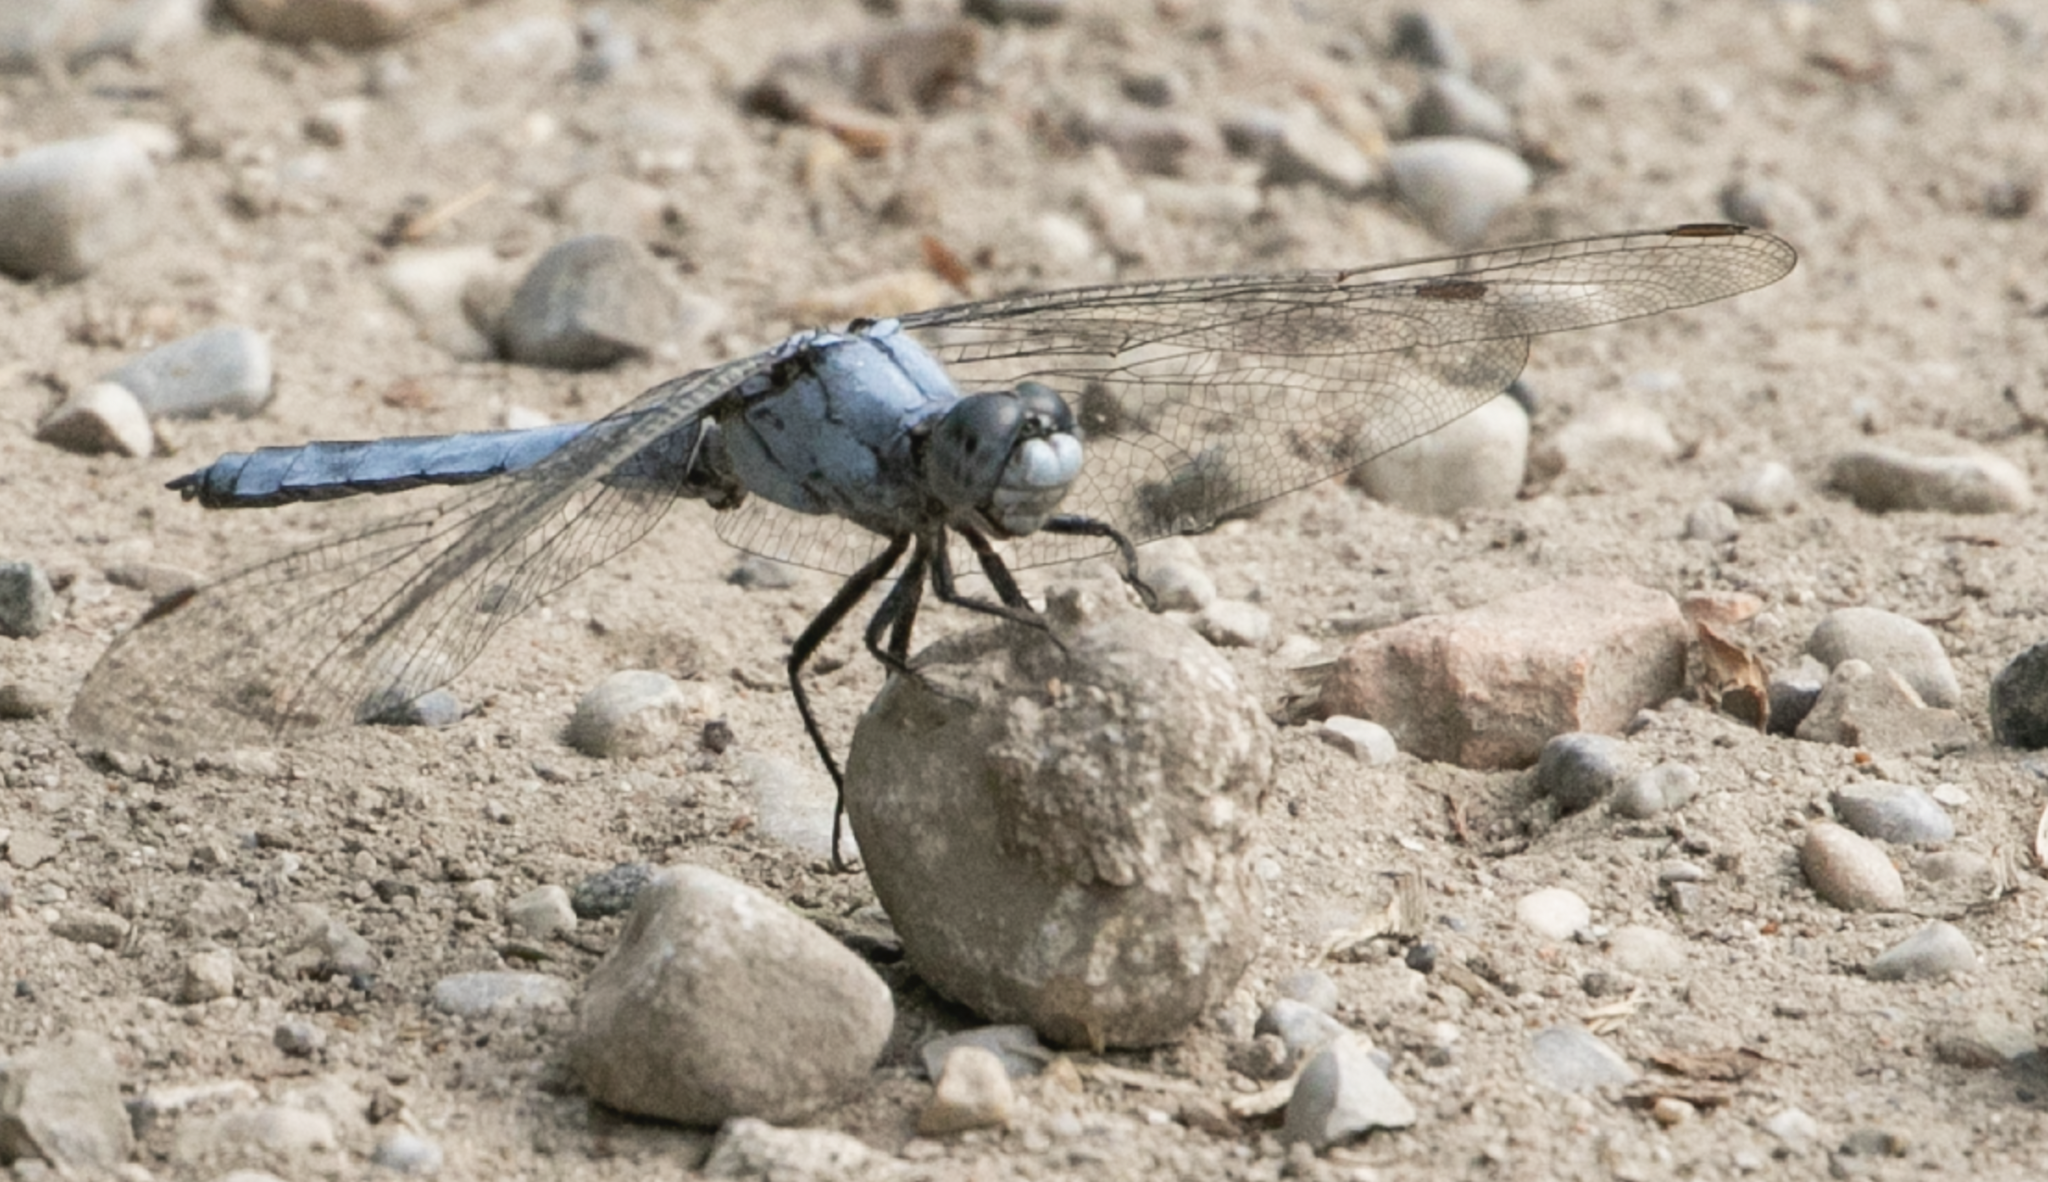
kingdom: Animalia
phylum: Arthropoda
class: Insecta
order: Odonata
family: Libellulidae
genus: Orthetrum
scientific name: Orthetrum brunneum
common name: Southern skimmer
